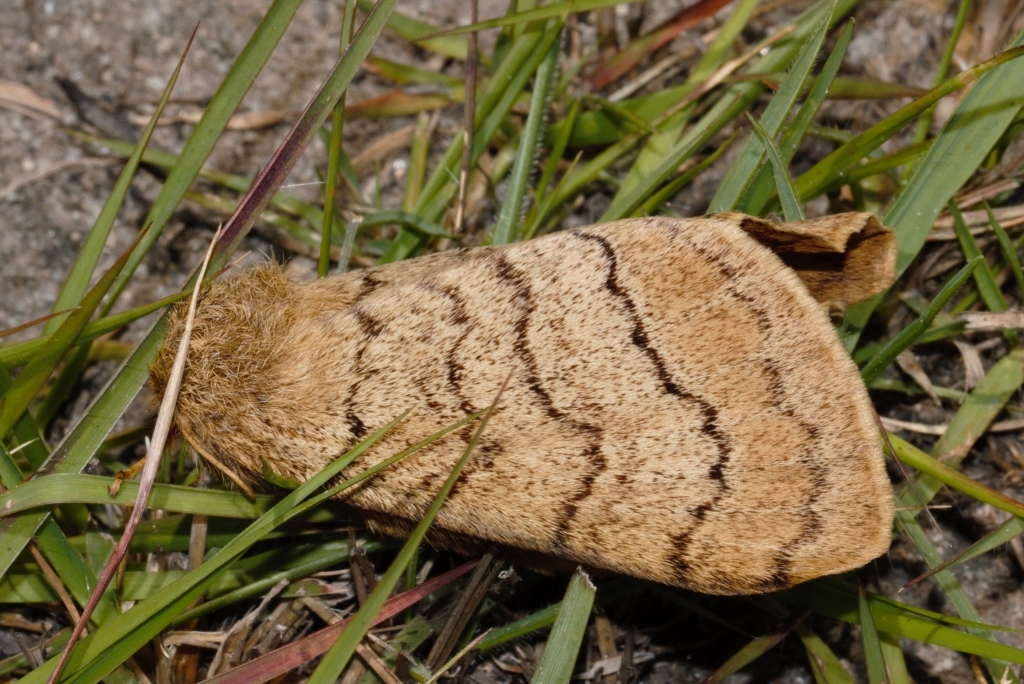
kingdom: Animalia
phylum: Arthropoda
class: Insecta
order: Lepidoptera
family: Eupterotidae
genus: Janomima
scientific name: Janomima mariana
